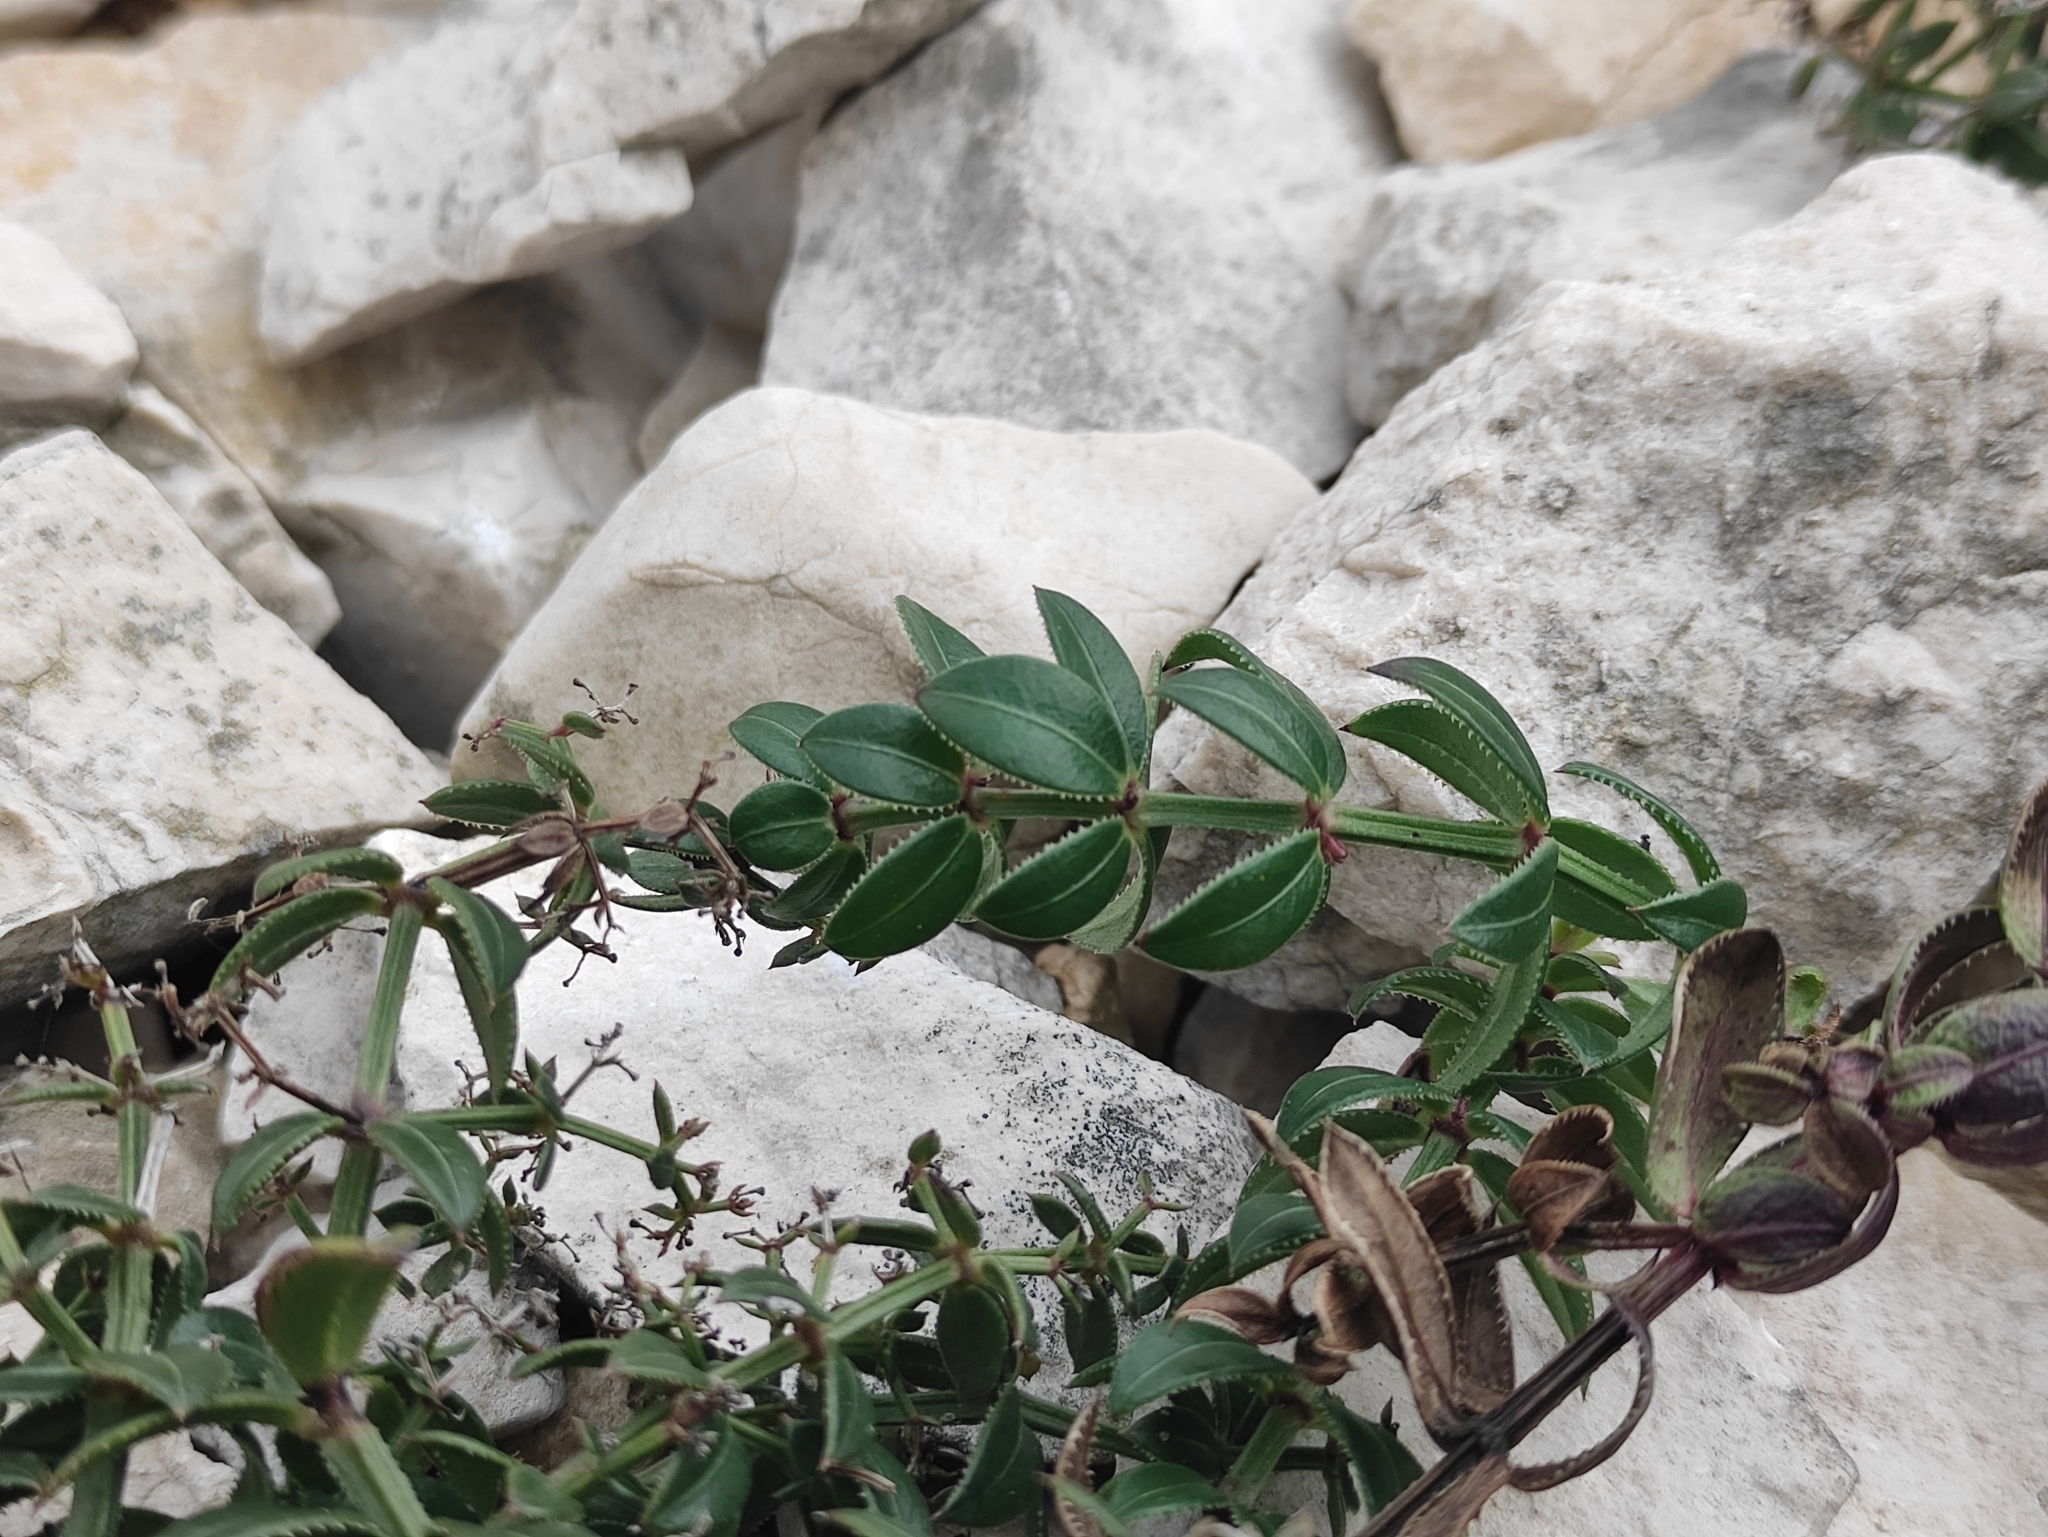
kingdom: Plantae
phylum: Tracheophyta
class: Magnoliopsida
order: Gentianales
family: Rubiaceae
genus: Rubia
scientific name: Rubia peregrina
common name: Wild madder
